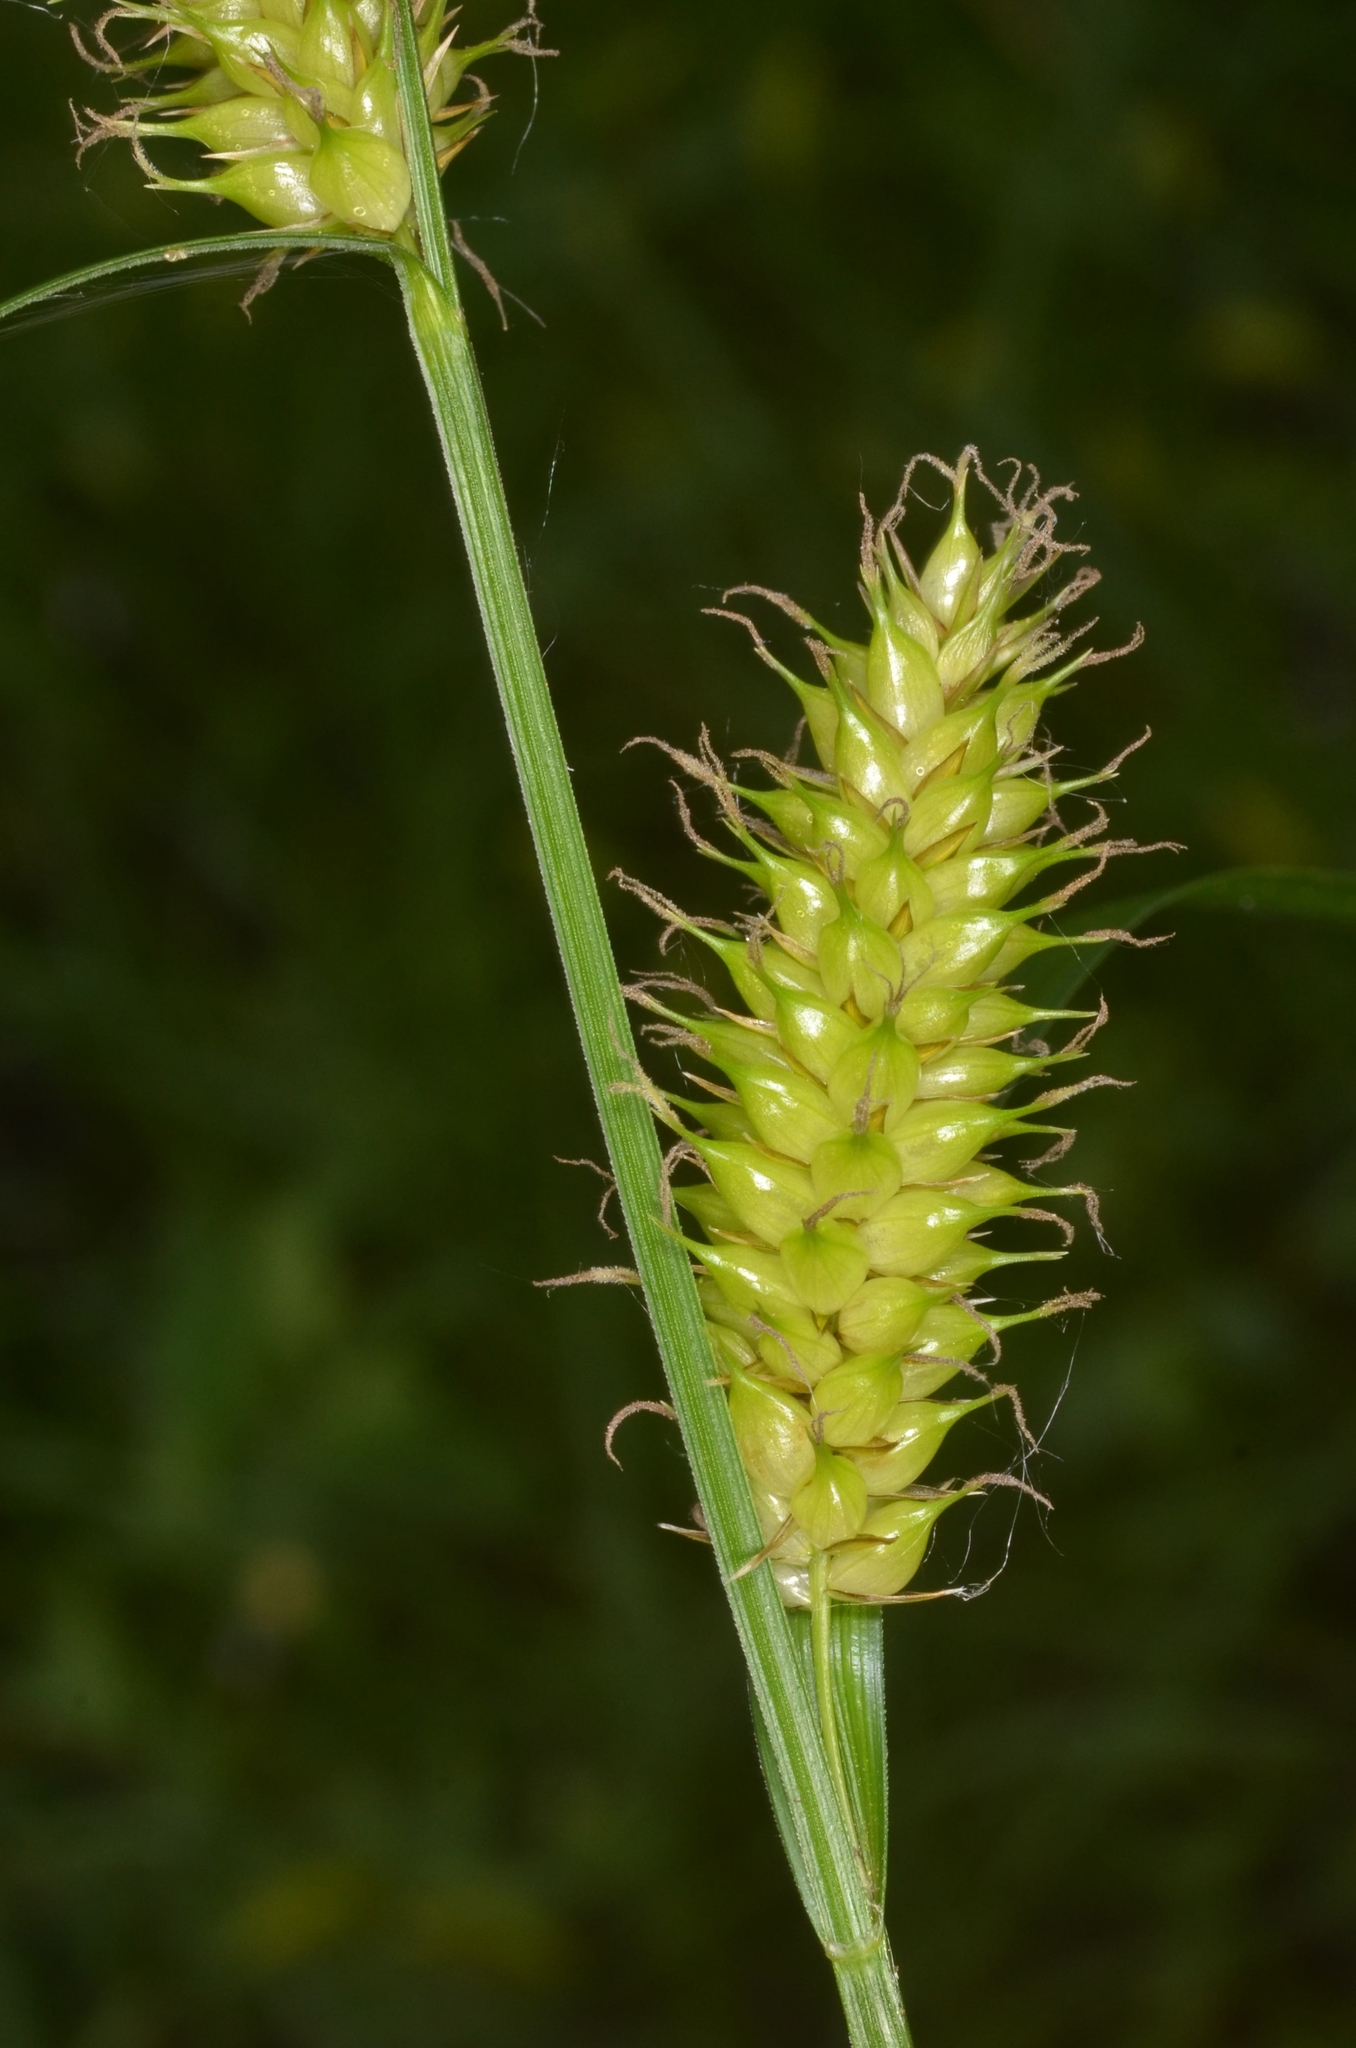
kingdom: Plantae
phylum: Tracheophyta
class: Liliopsida
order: Poales
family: Cyperaceae
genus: Carex
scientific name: Carex vesicaria
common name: Bladder-sedge
